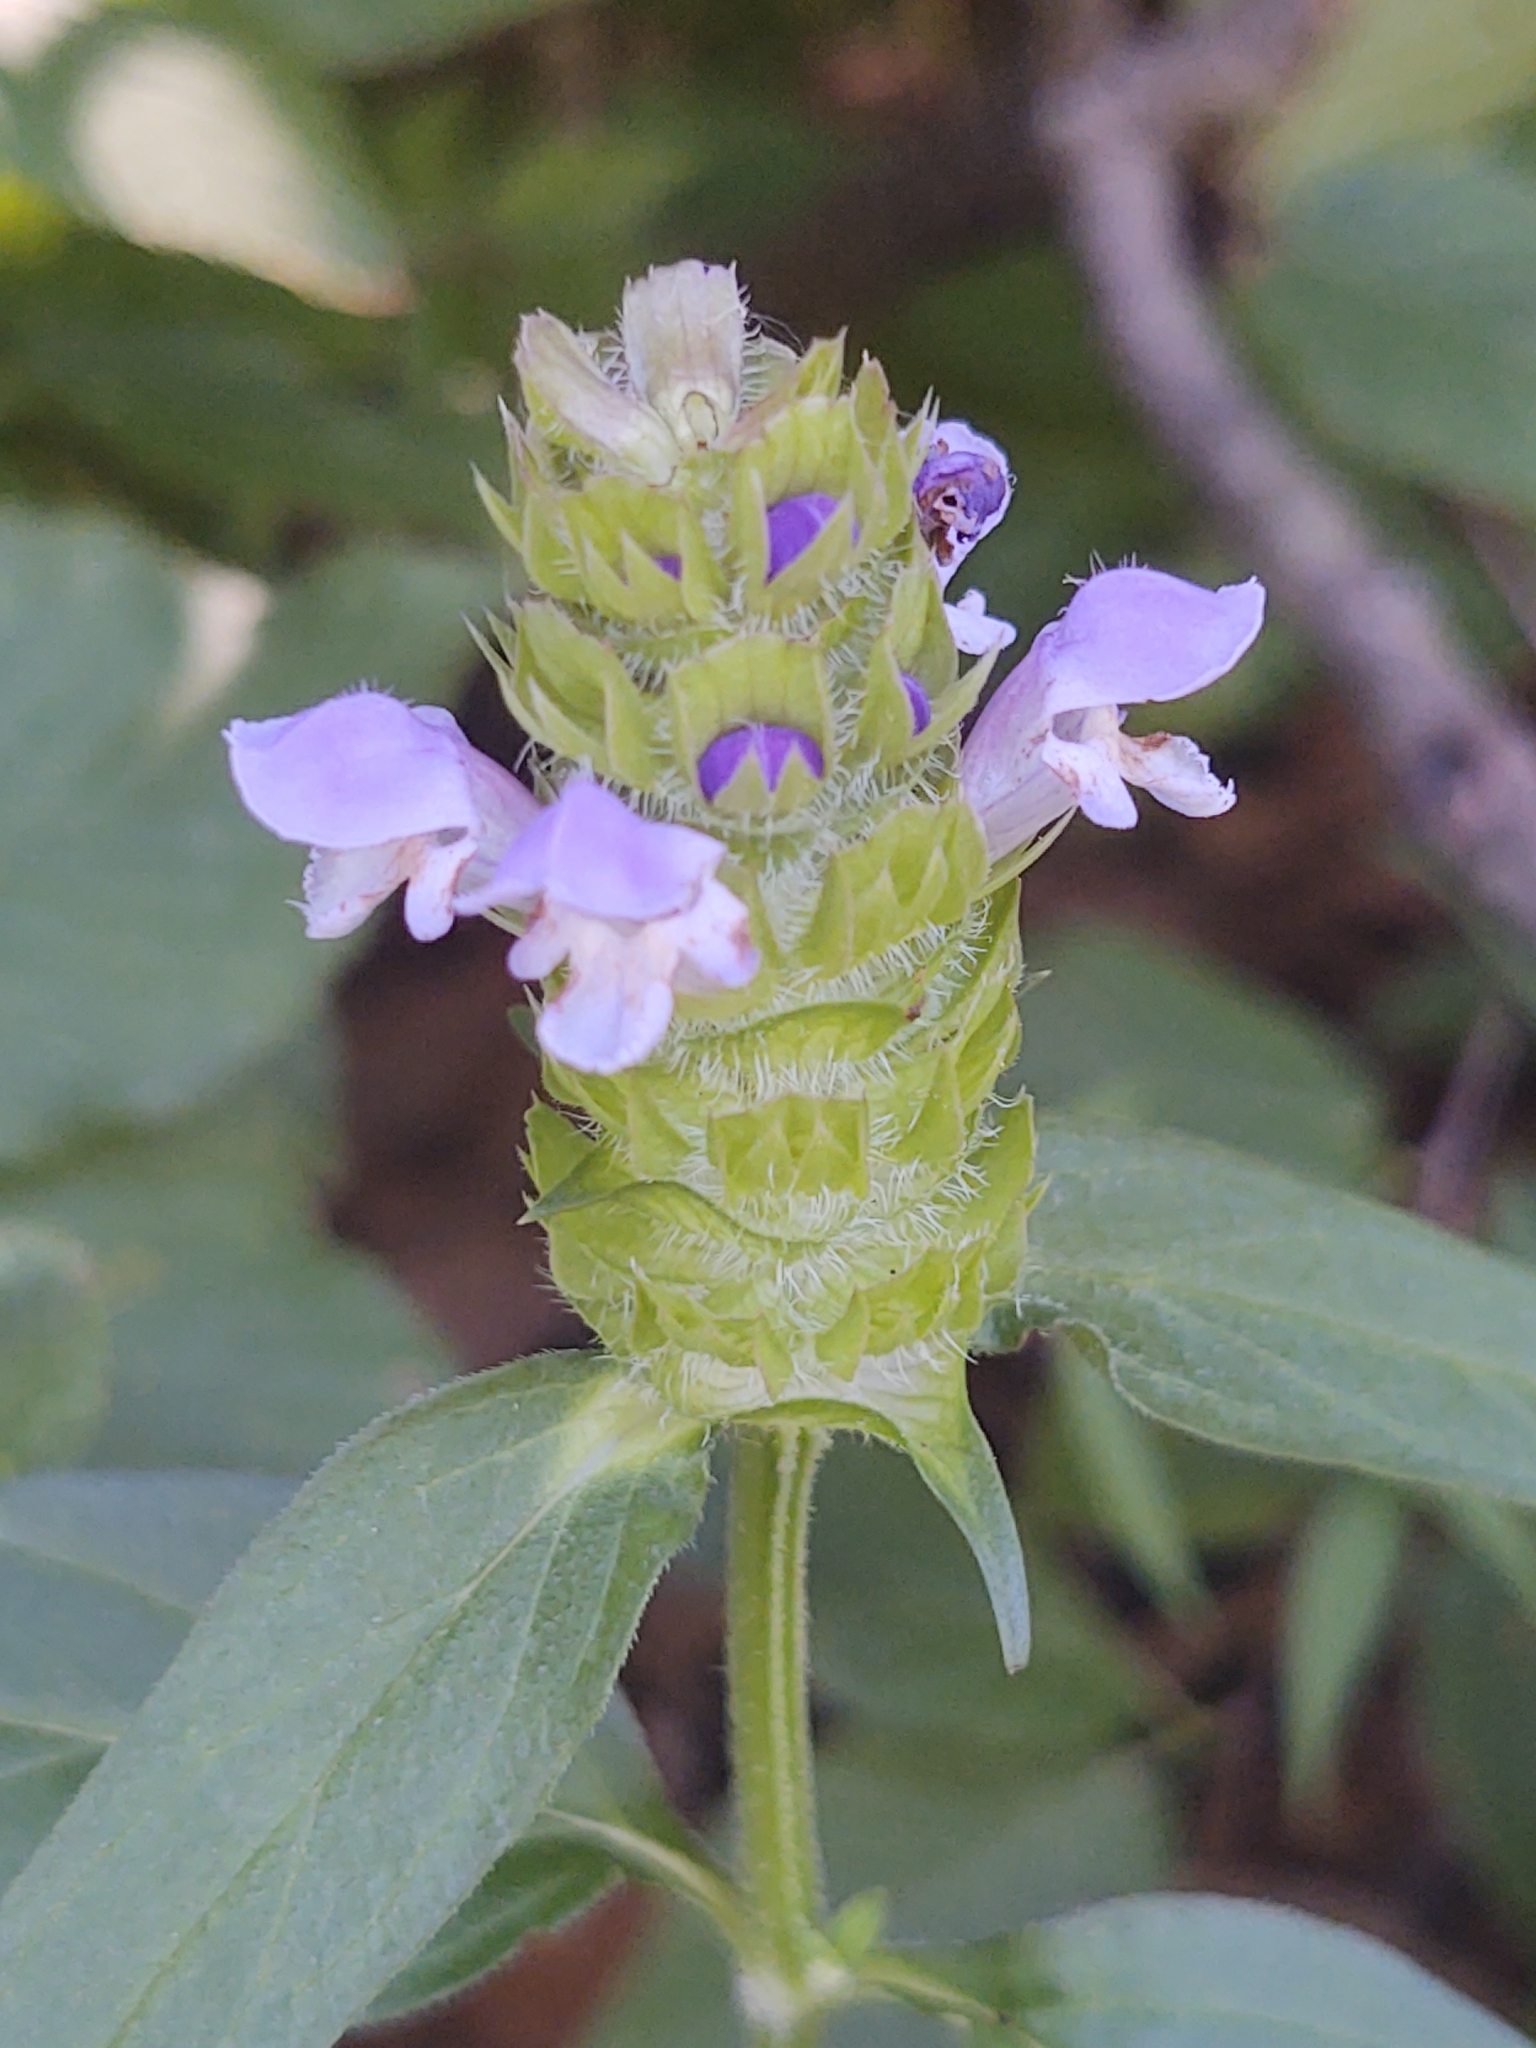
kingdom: Plantae
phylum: Tracheophyta
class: Magnoliopsida
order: Lamiales
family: Lamiaceae
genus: Prunella
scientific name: Prunella vulgaris
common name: Heal-all
